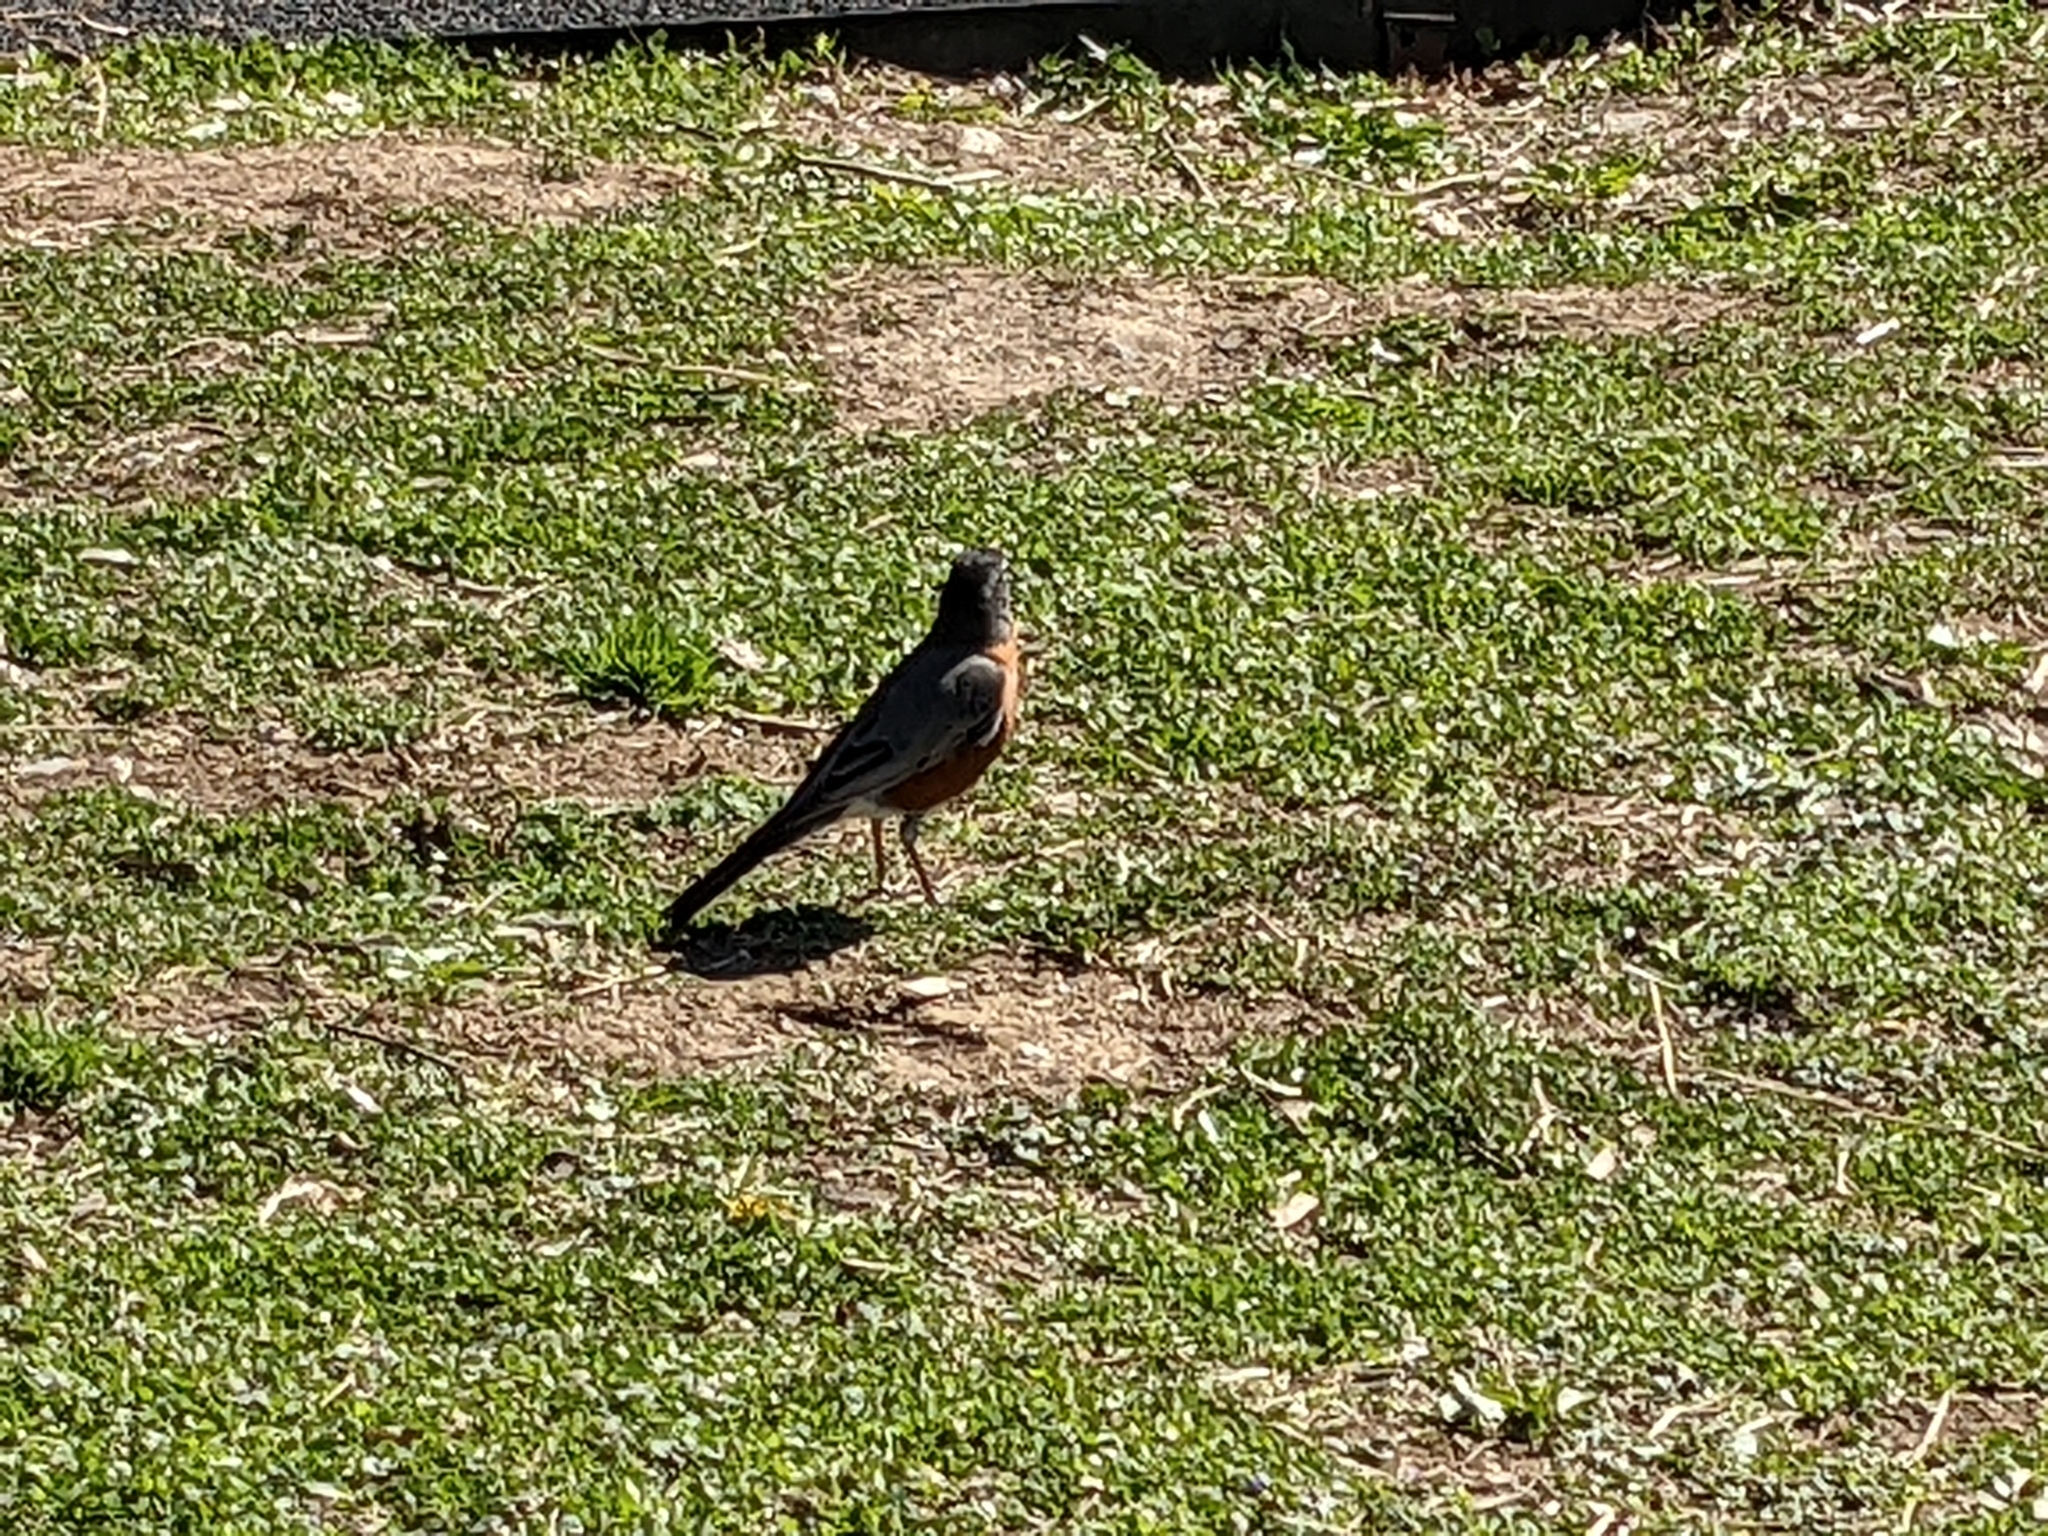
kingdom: Animalia
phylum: Chordata
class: Aves
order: Passeriformes
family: Turdidae
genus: Turdus
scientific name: Turdus migratorius
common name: American robin
